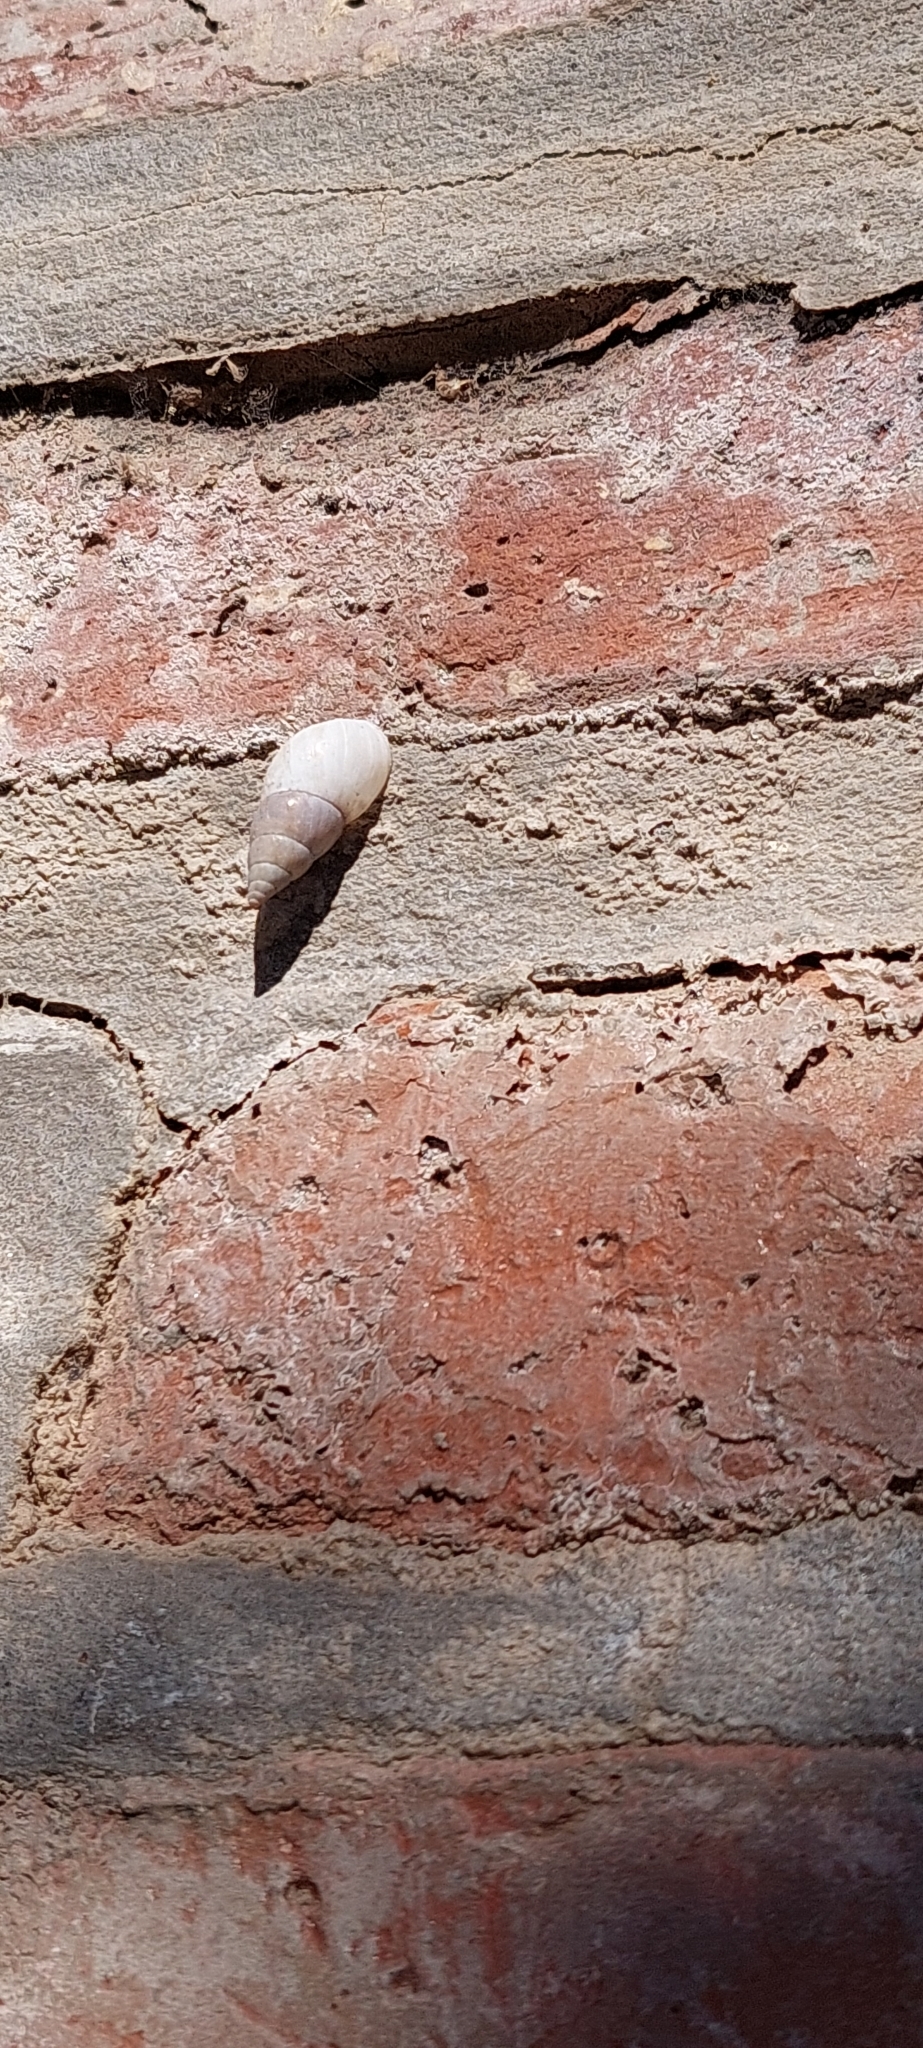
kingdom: Animalia
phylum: Mollusca
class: Gastropoda
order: Stylommatophora
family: Bulimulidae
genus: Bulimulus
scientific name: Bulimulus bonariensis
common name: Snail
